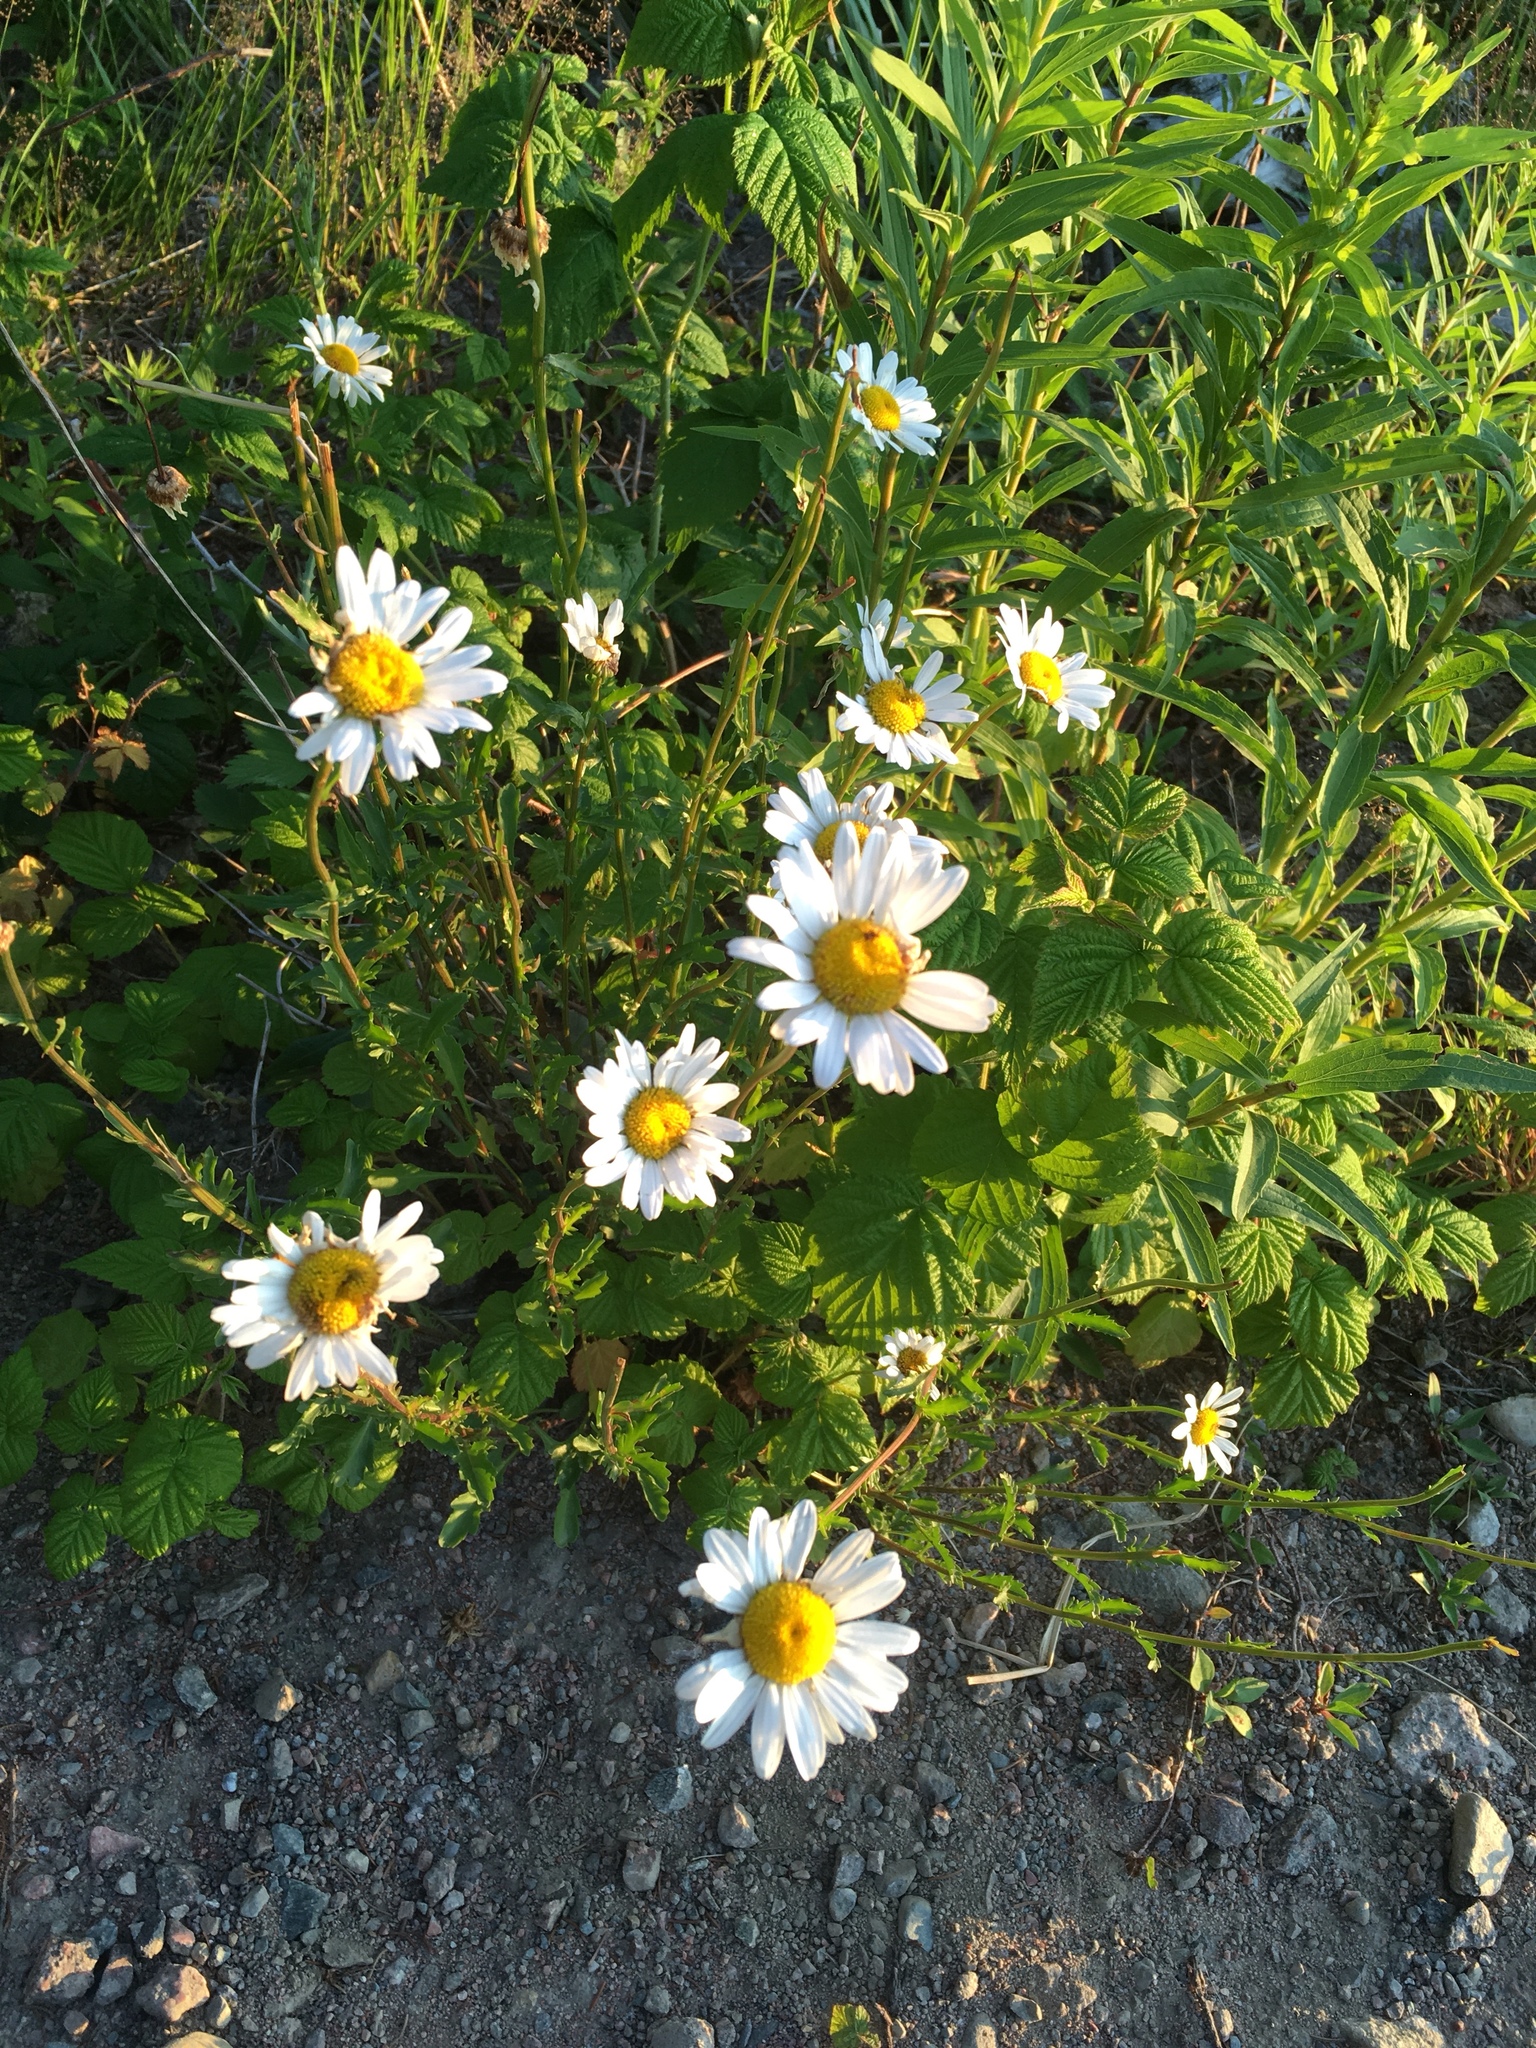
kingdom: Plantae
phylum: Tracheophyta
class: Magnoliopsida
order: Asterales
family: Asteraceae
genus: Leucanthemum
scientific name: Leucanthemum vulgare
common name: Oxeye daisy
